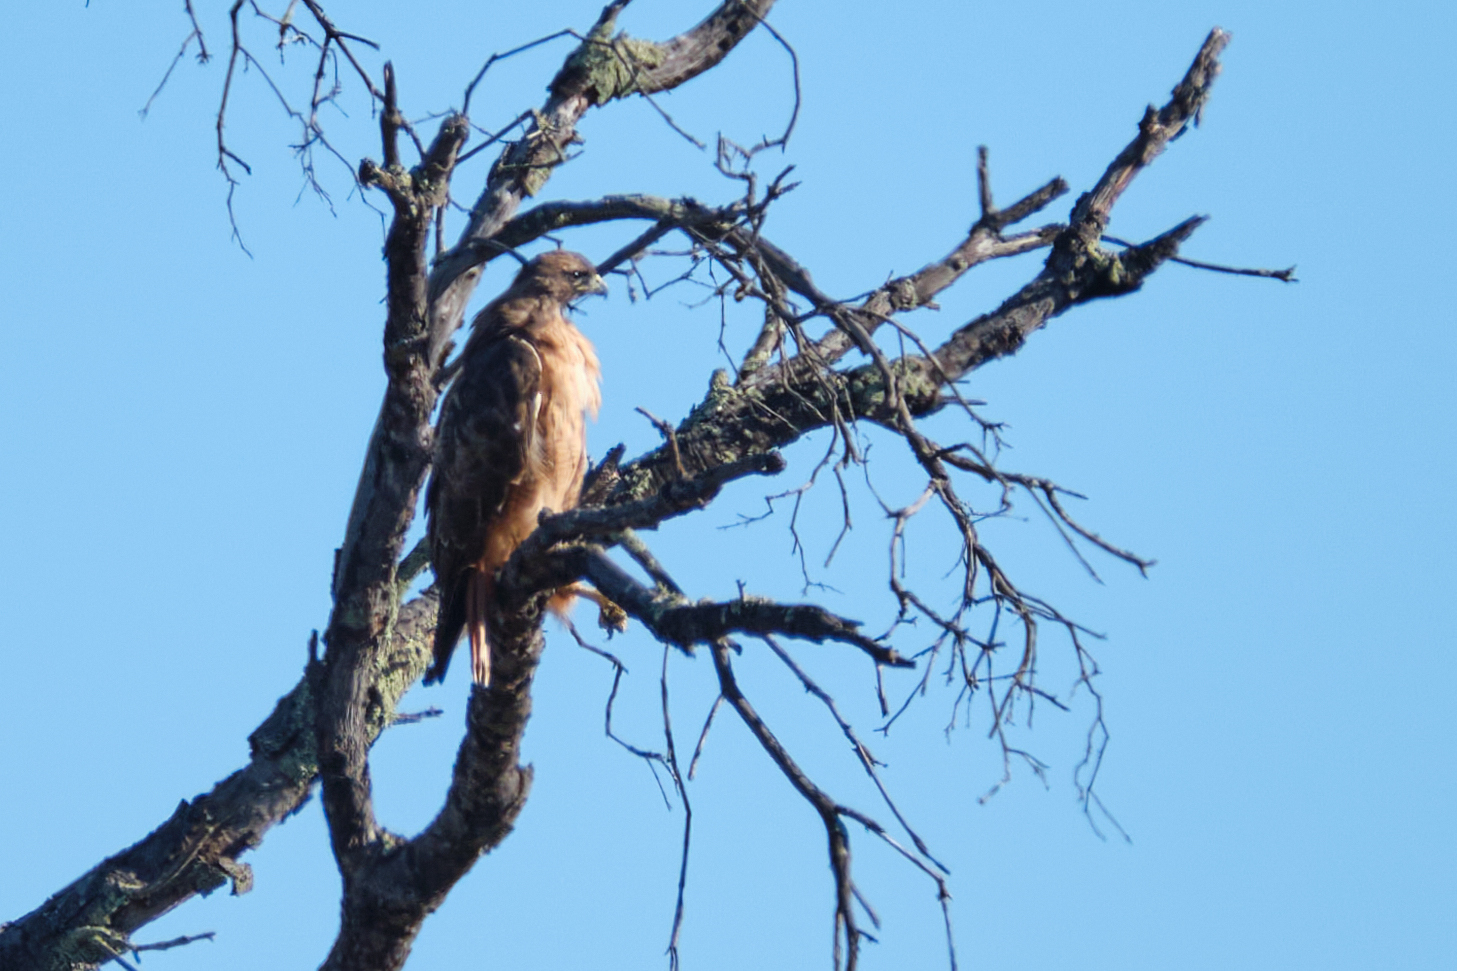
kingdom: Animalia
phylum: Chordata
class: Aves
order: Accipitriformes
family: Accipitridae
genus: Buteo
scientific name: Buteo jamaicensis
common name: Red-tailed hawk
